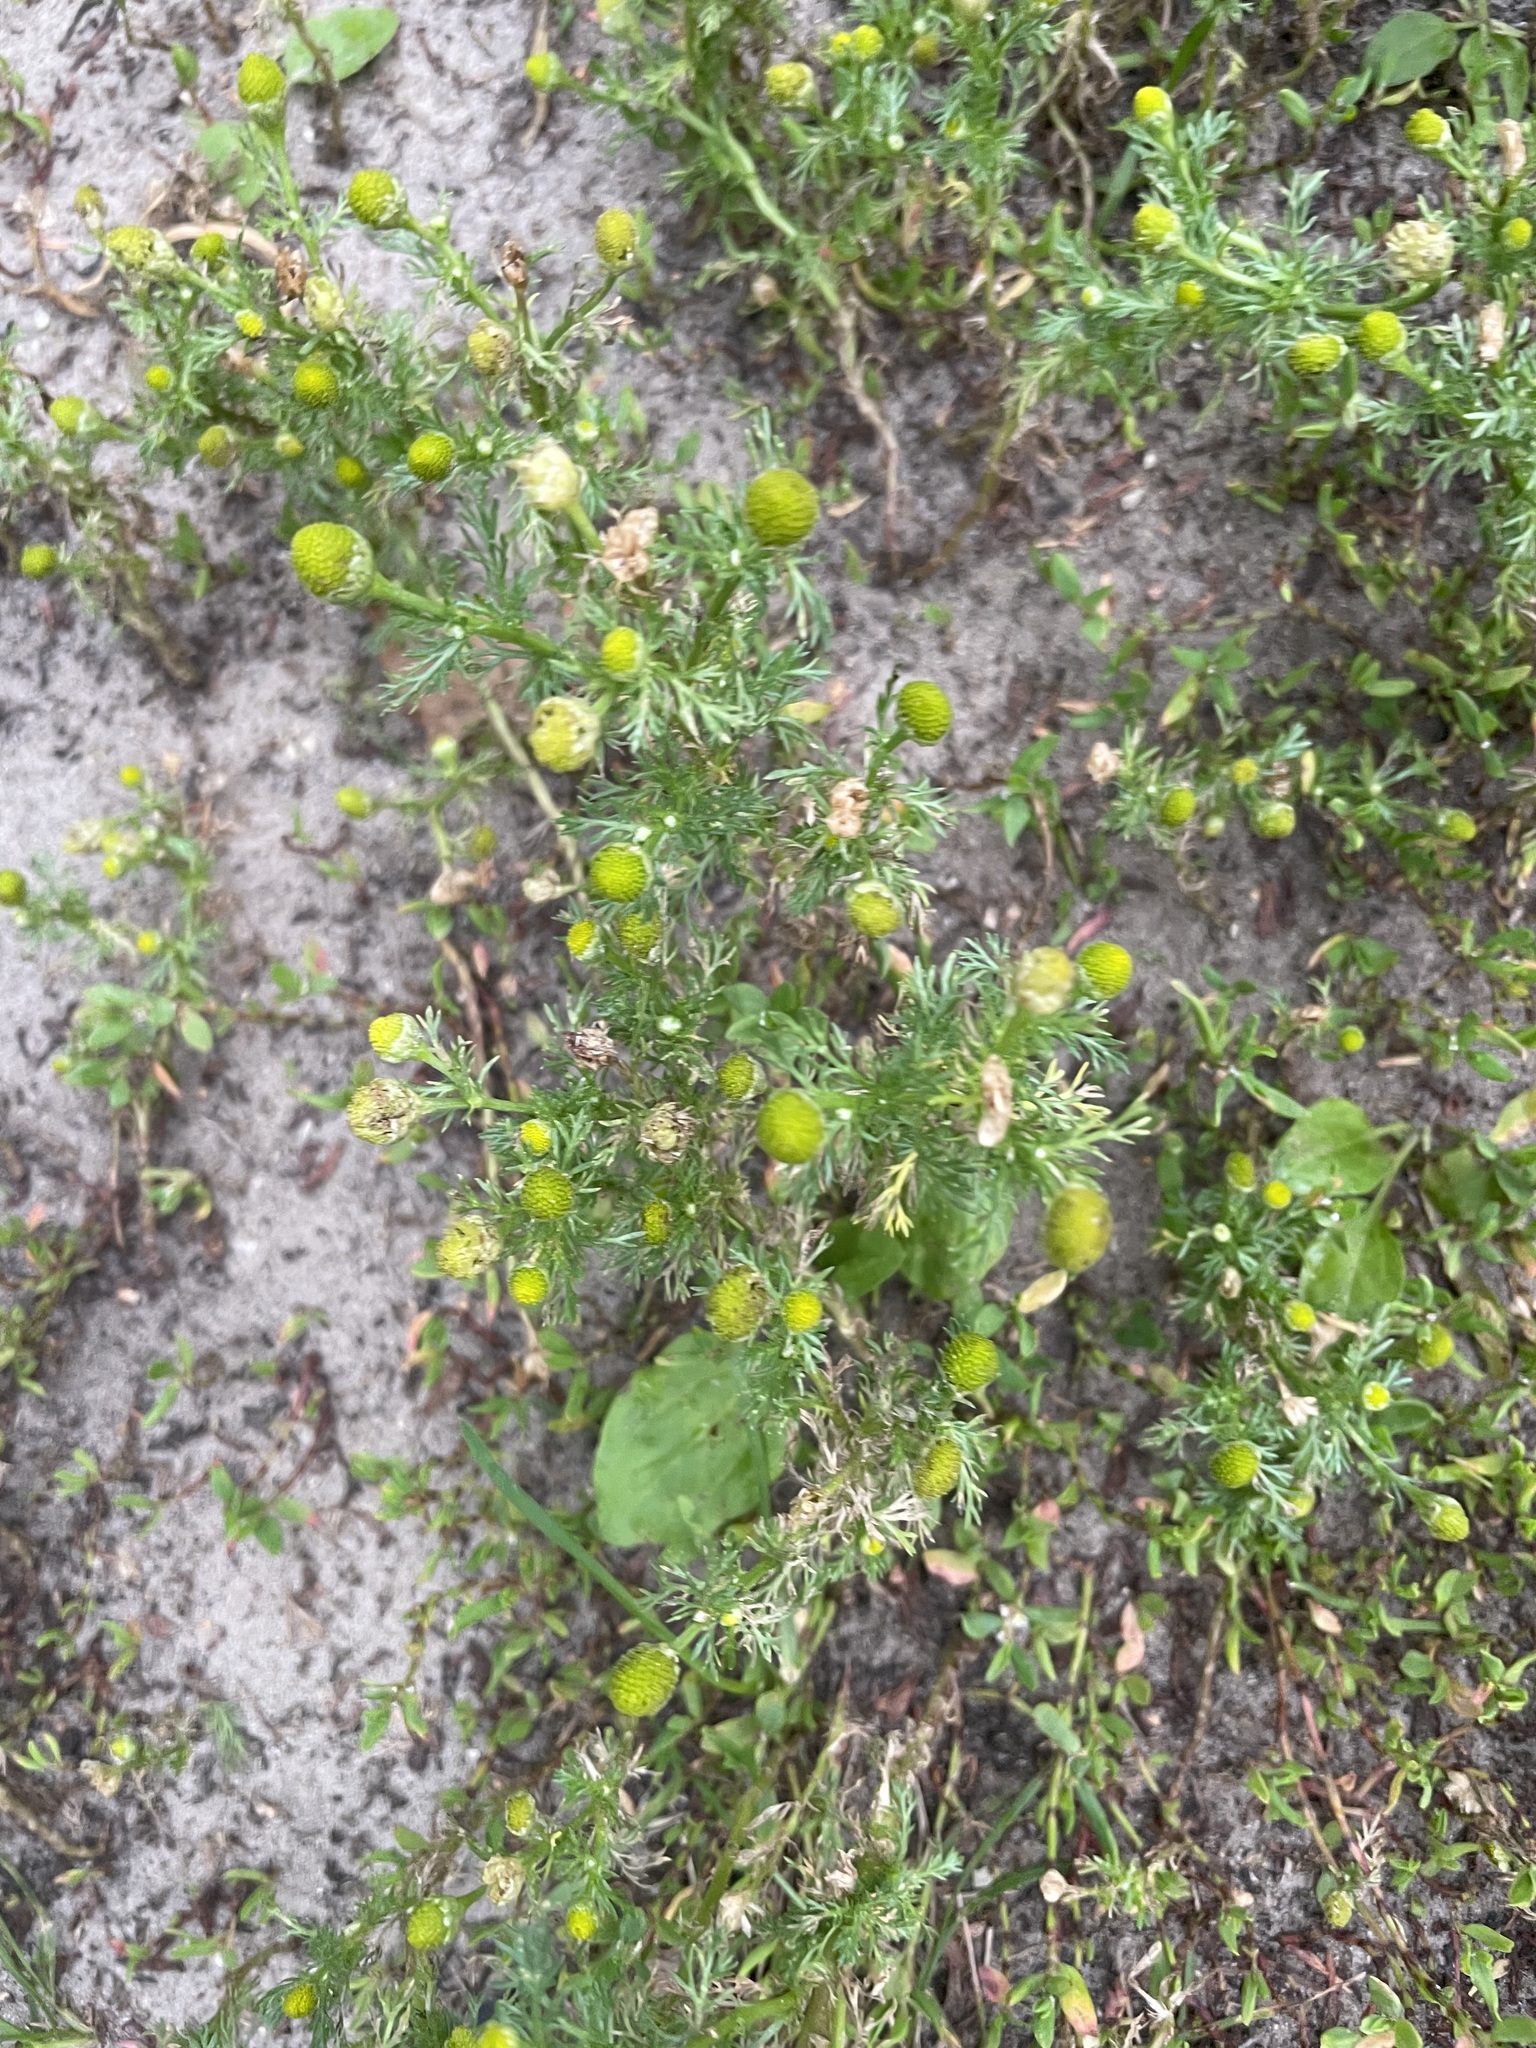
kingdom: Plantae
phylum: Tracheophyta
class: Magnoliopsida
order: Asterales
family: Asteraceae
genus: Matricaria
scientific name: Matricaria discoidea
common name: Disc mayweed
